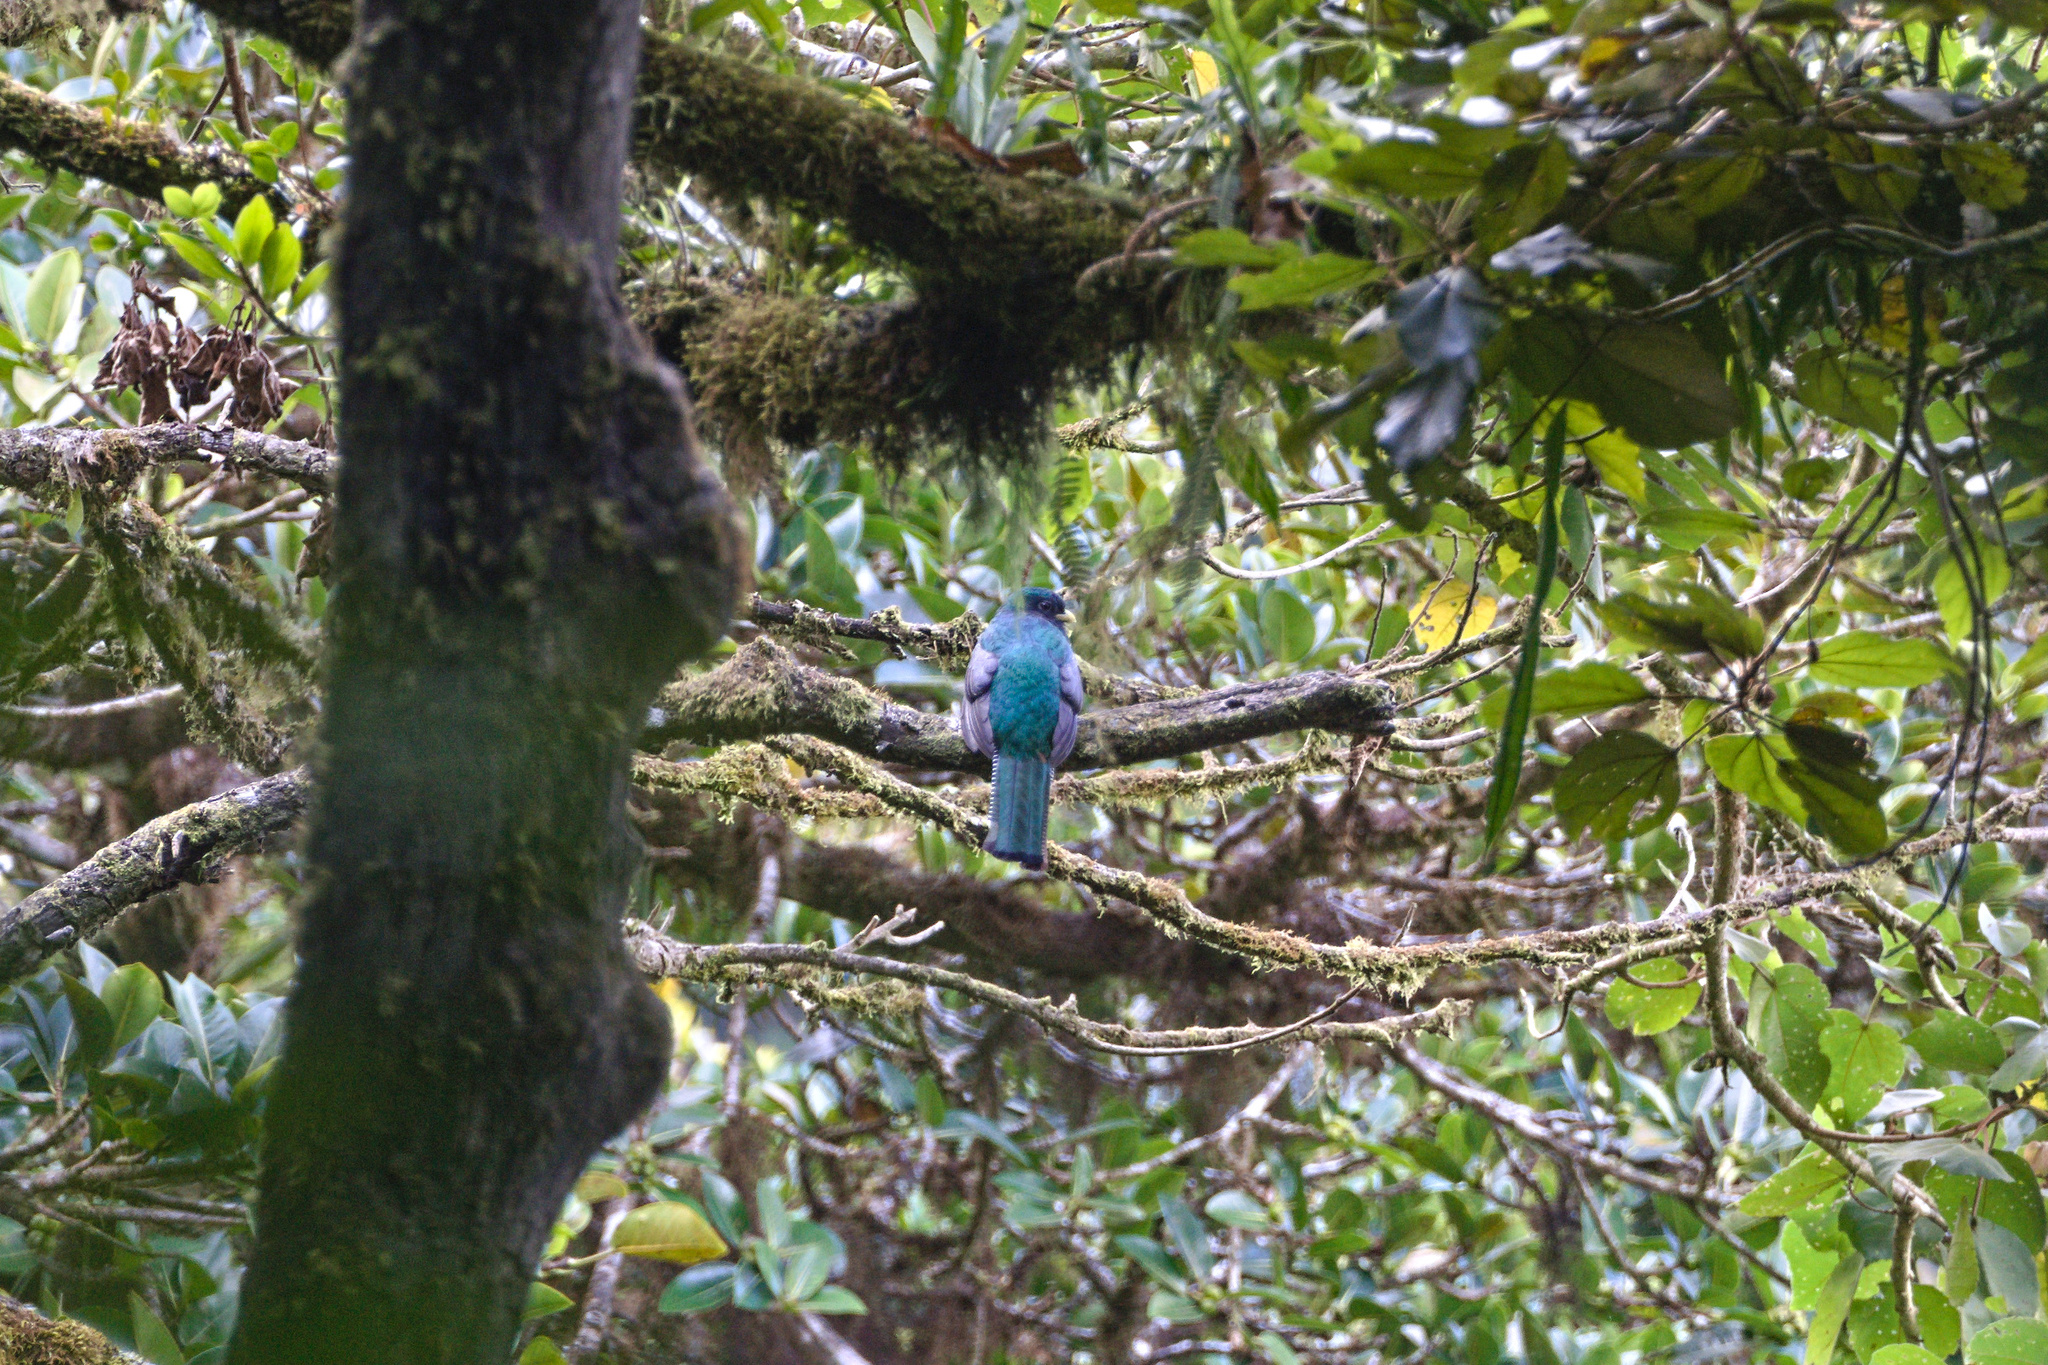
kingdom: Animalia
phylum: Chordata
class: Aves
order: Trogoniformes
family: Trogonidae
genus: Trogon
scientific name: Trogon collaris
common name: Collared trogon
